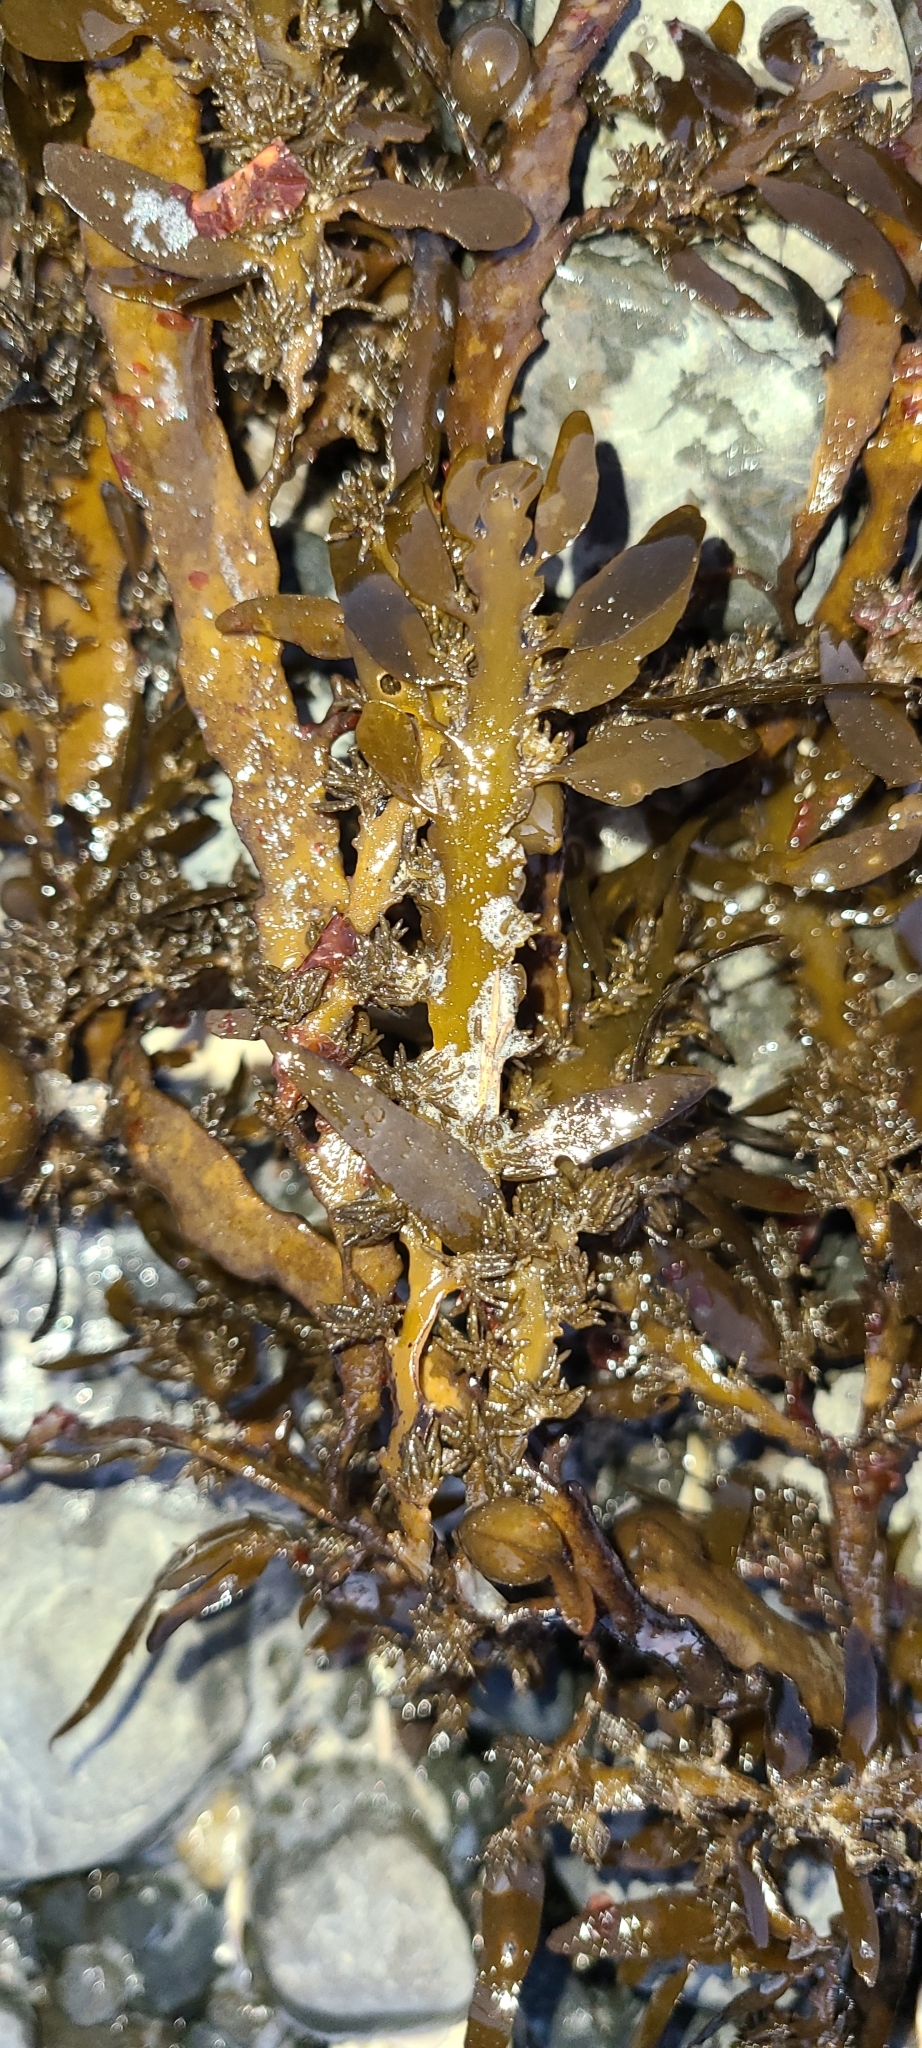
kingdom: Chromista
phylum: Ochrophyta
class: Phaeophyceae
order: Fucales
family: Sargassaceae
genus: Carpophyllum
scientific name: Carpophyllum maschalocarpum
